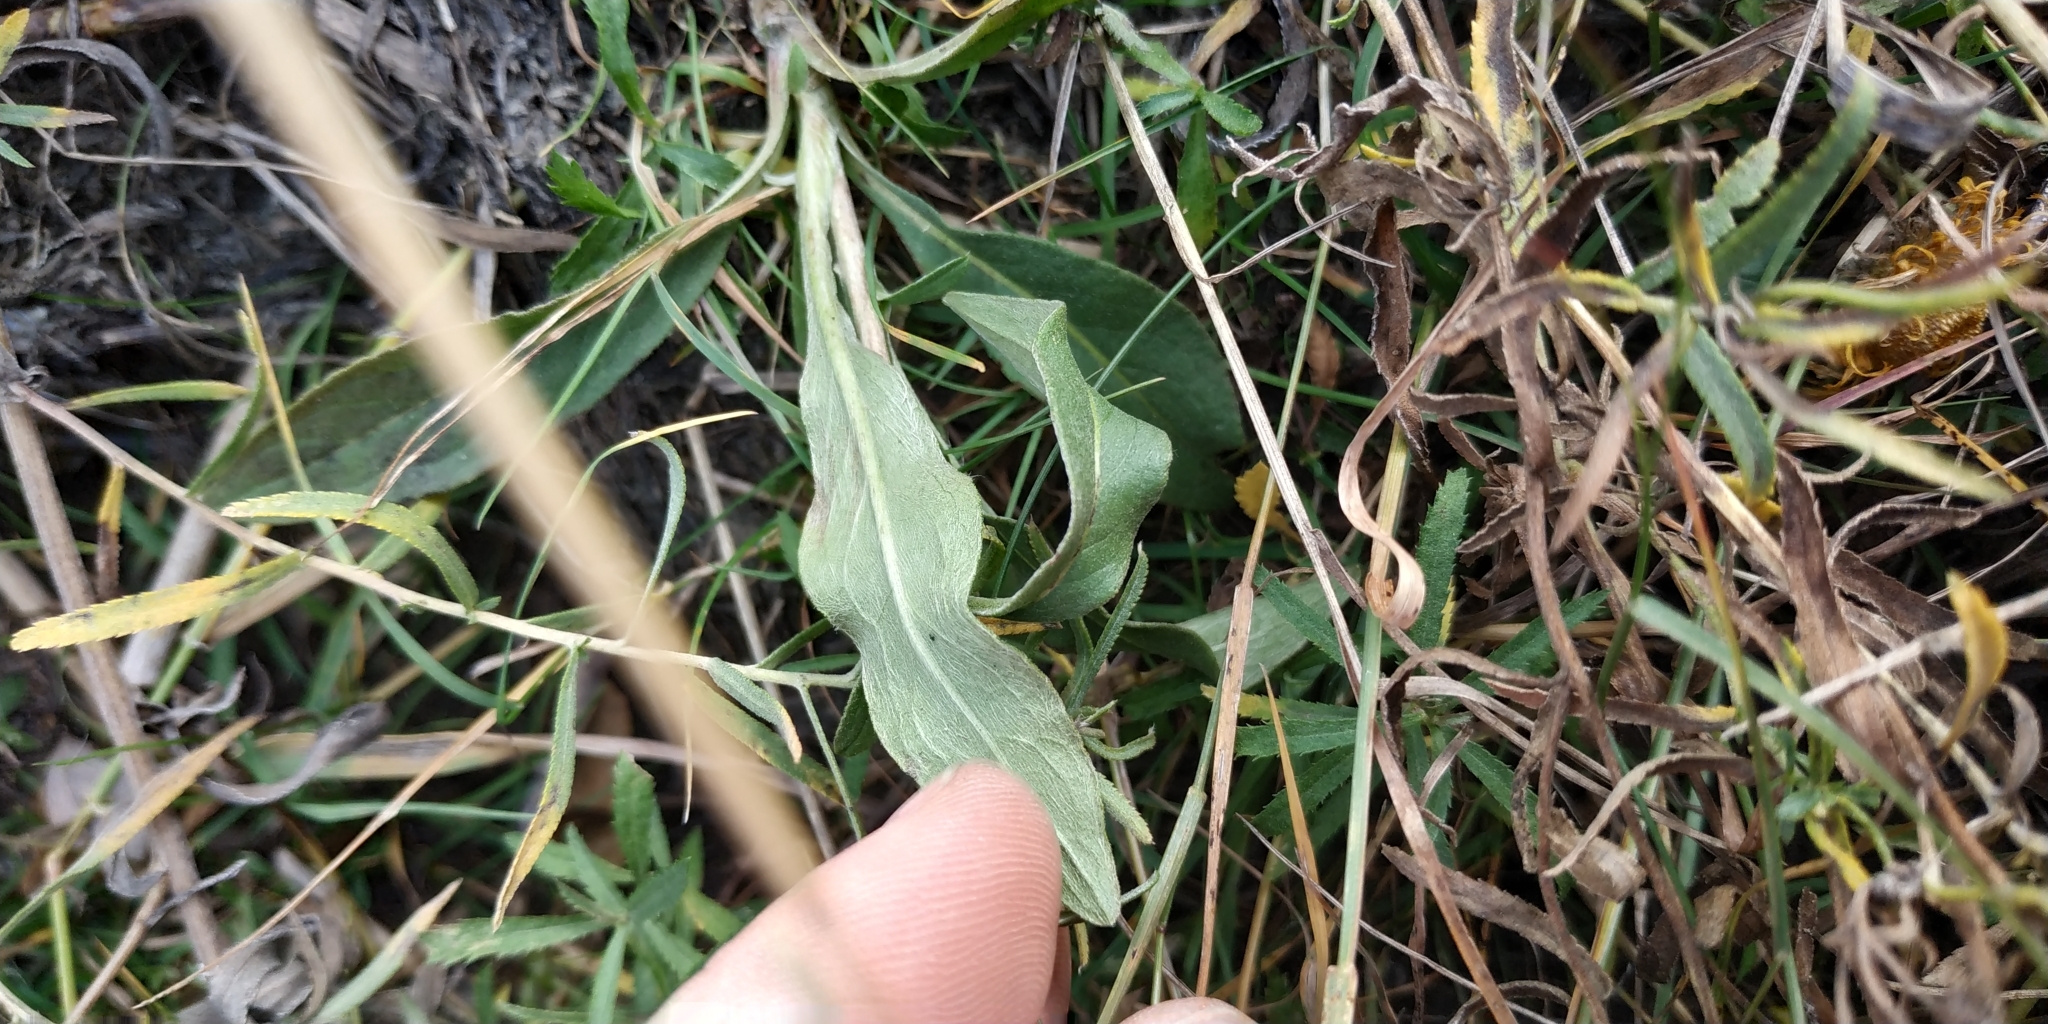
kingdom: Plantae
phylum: Tracheophyta
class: Magnoliopsida
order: Asterales
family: Asteraceae
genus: Pentanema
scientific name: Pentanema britannicum
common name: British elecampane
